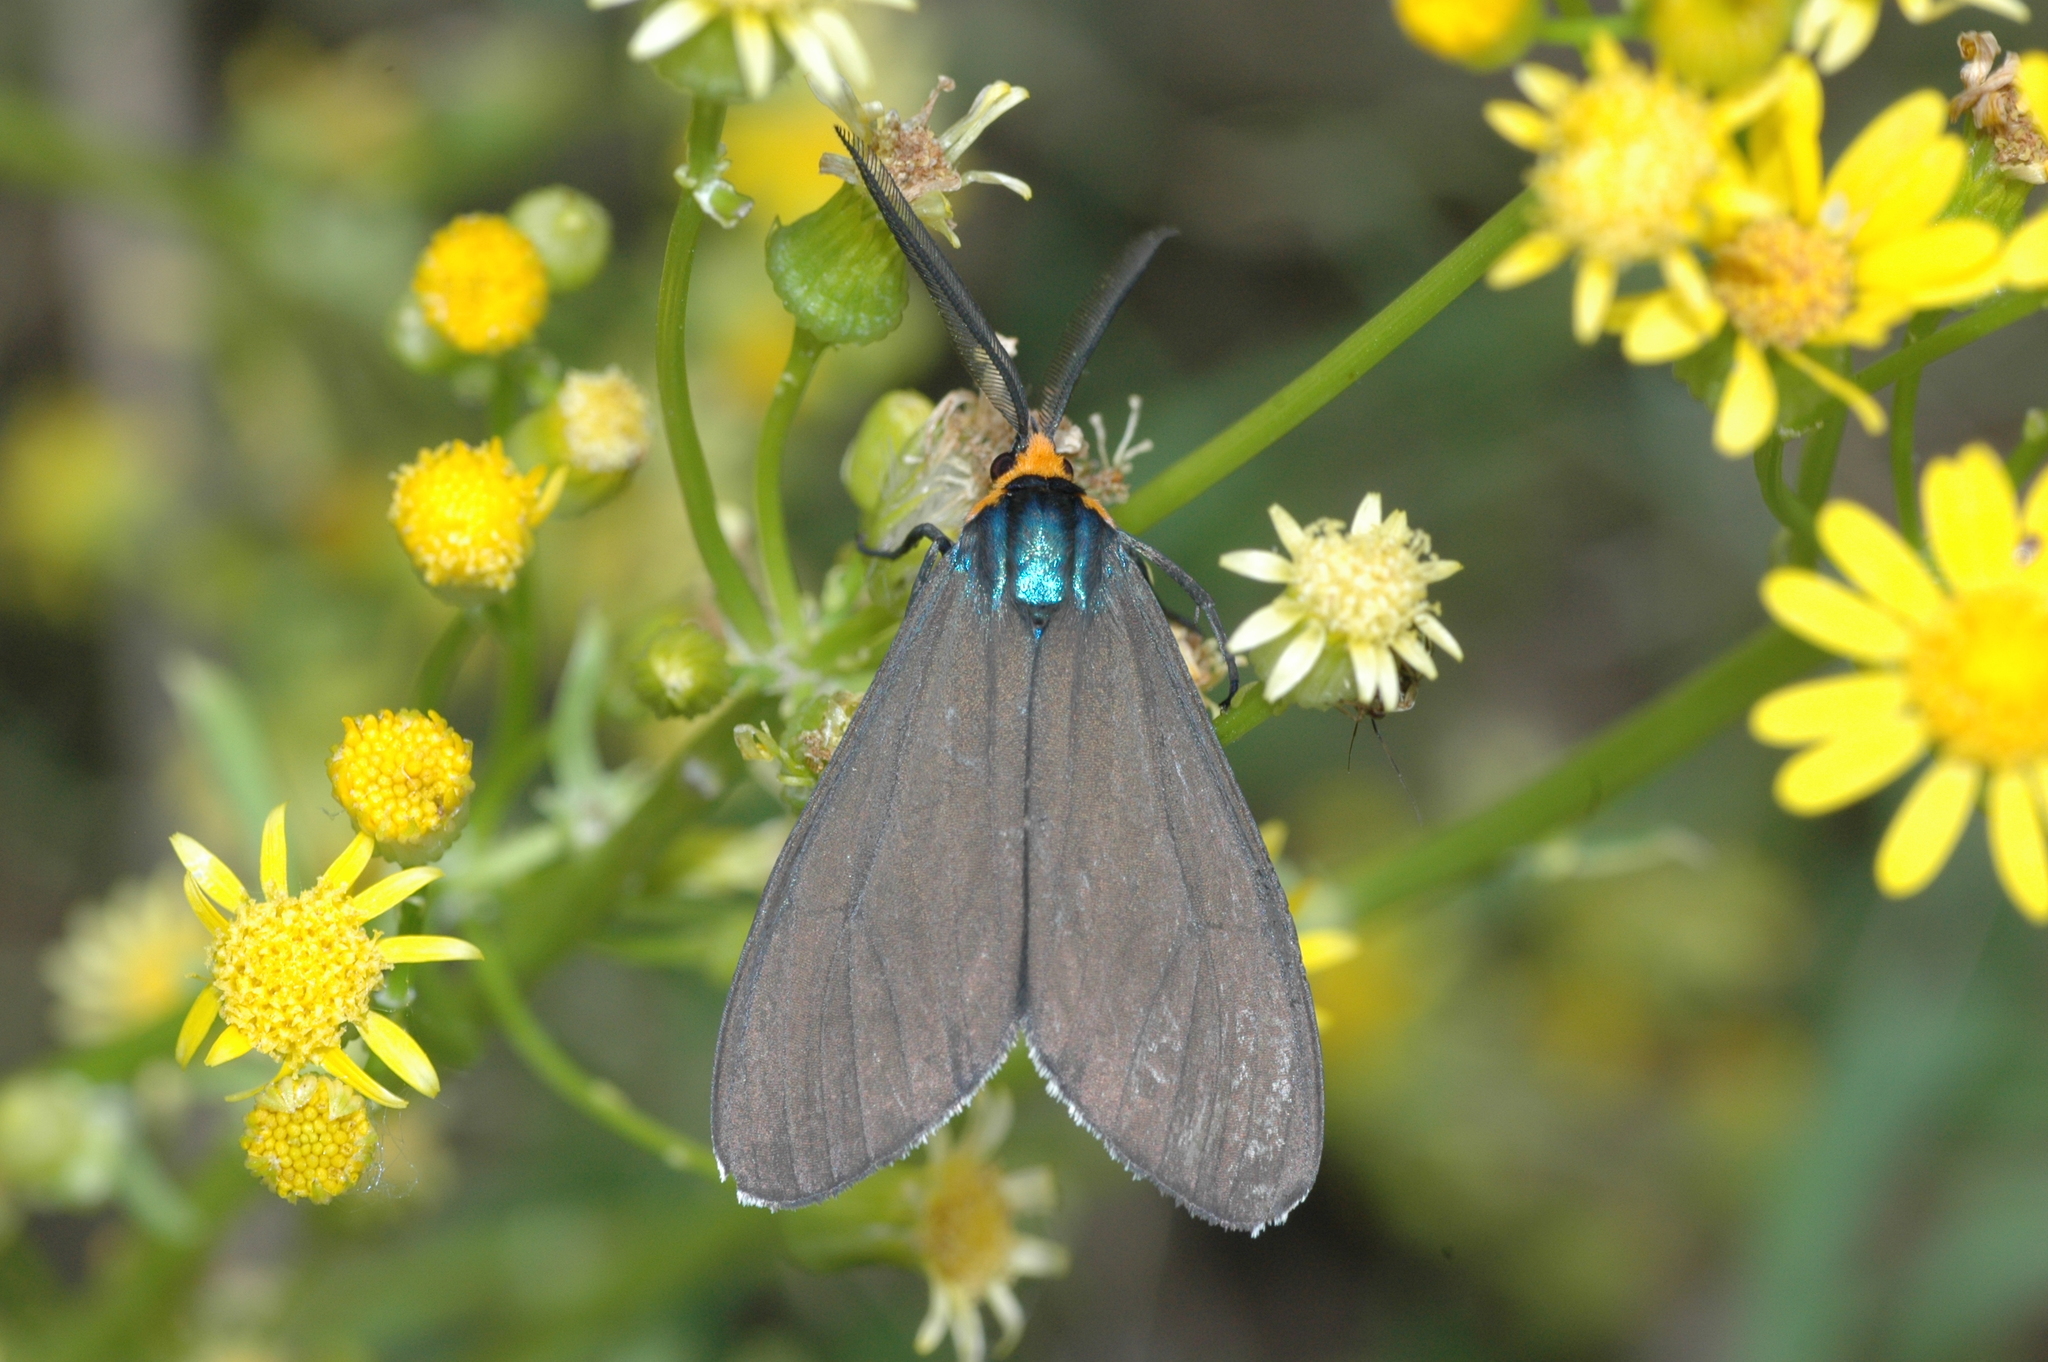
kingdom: Animalia
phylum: Arthropoda
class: Insecta
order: Lepidoptera
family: Erebidae
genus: Ctenucha
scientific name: Ctenucha virginica
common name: Virginia ctenucha moth
